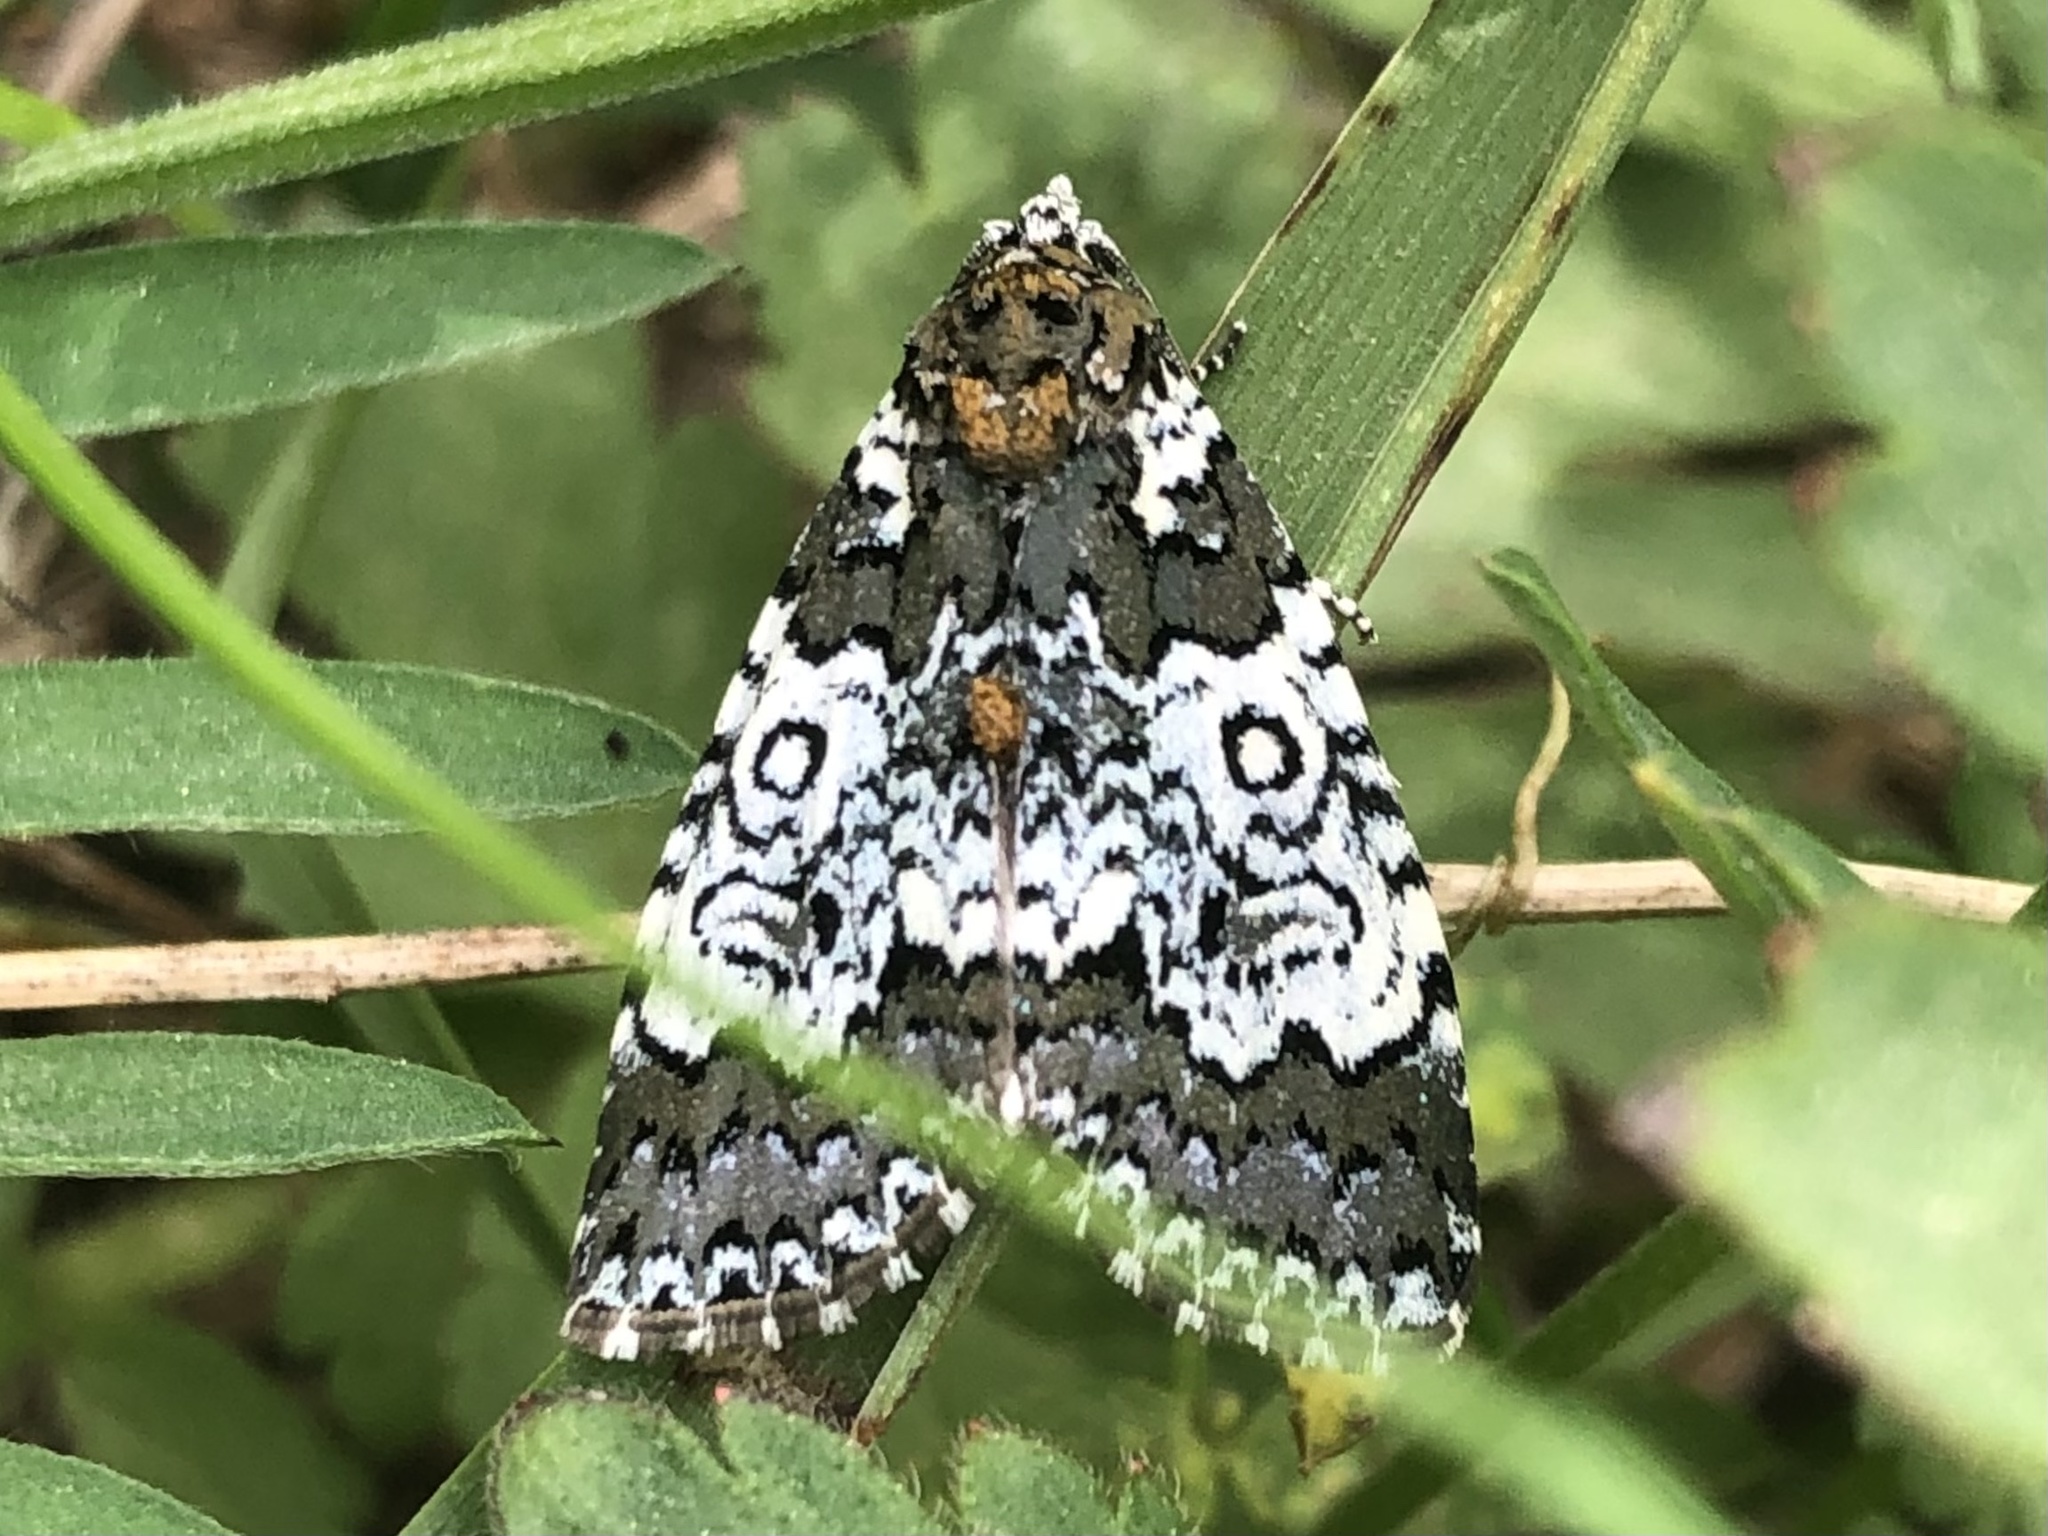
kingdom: Animalia
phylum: Arthropoda
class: Insecta
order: Lepidoptera
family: Noctuidae
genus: Cerma
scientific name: Cerma cora
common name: Bird dropping moth
